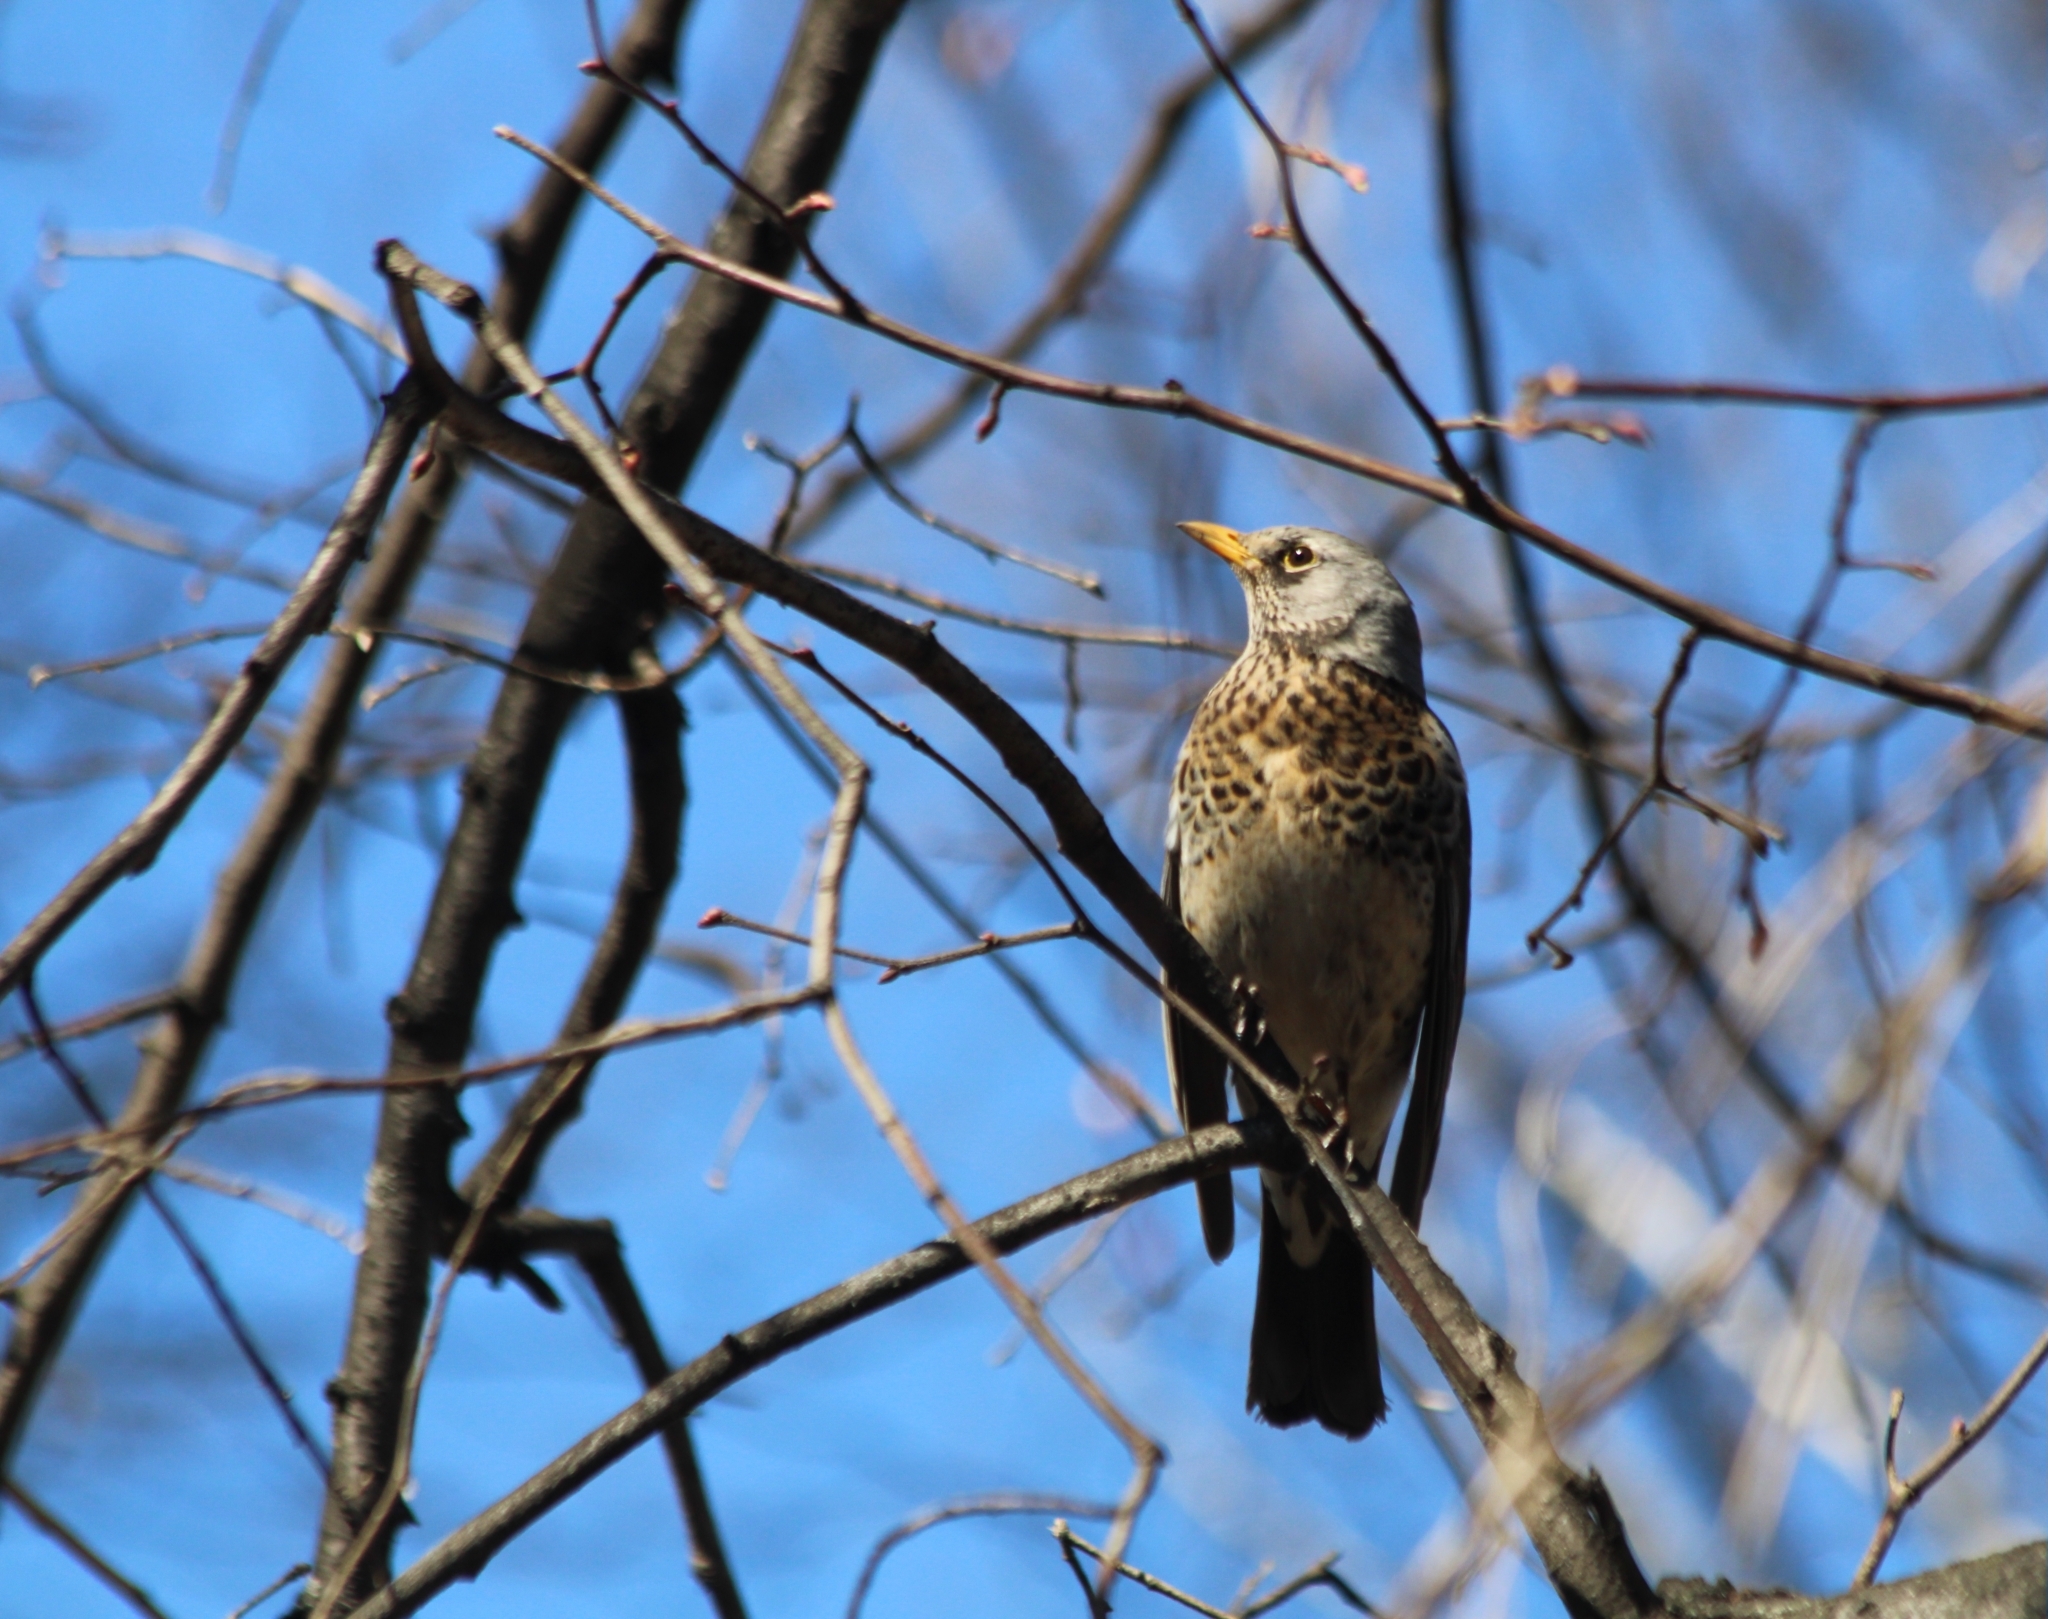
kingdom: Animalia
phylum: Chordata
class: Aves
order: Passeriformes
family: Turdidae
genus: Turdus
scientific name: Turdus pilaris
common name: Fieldfare
